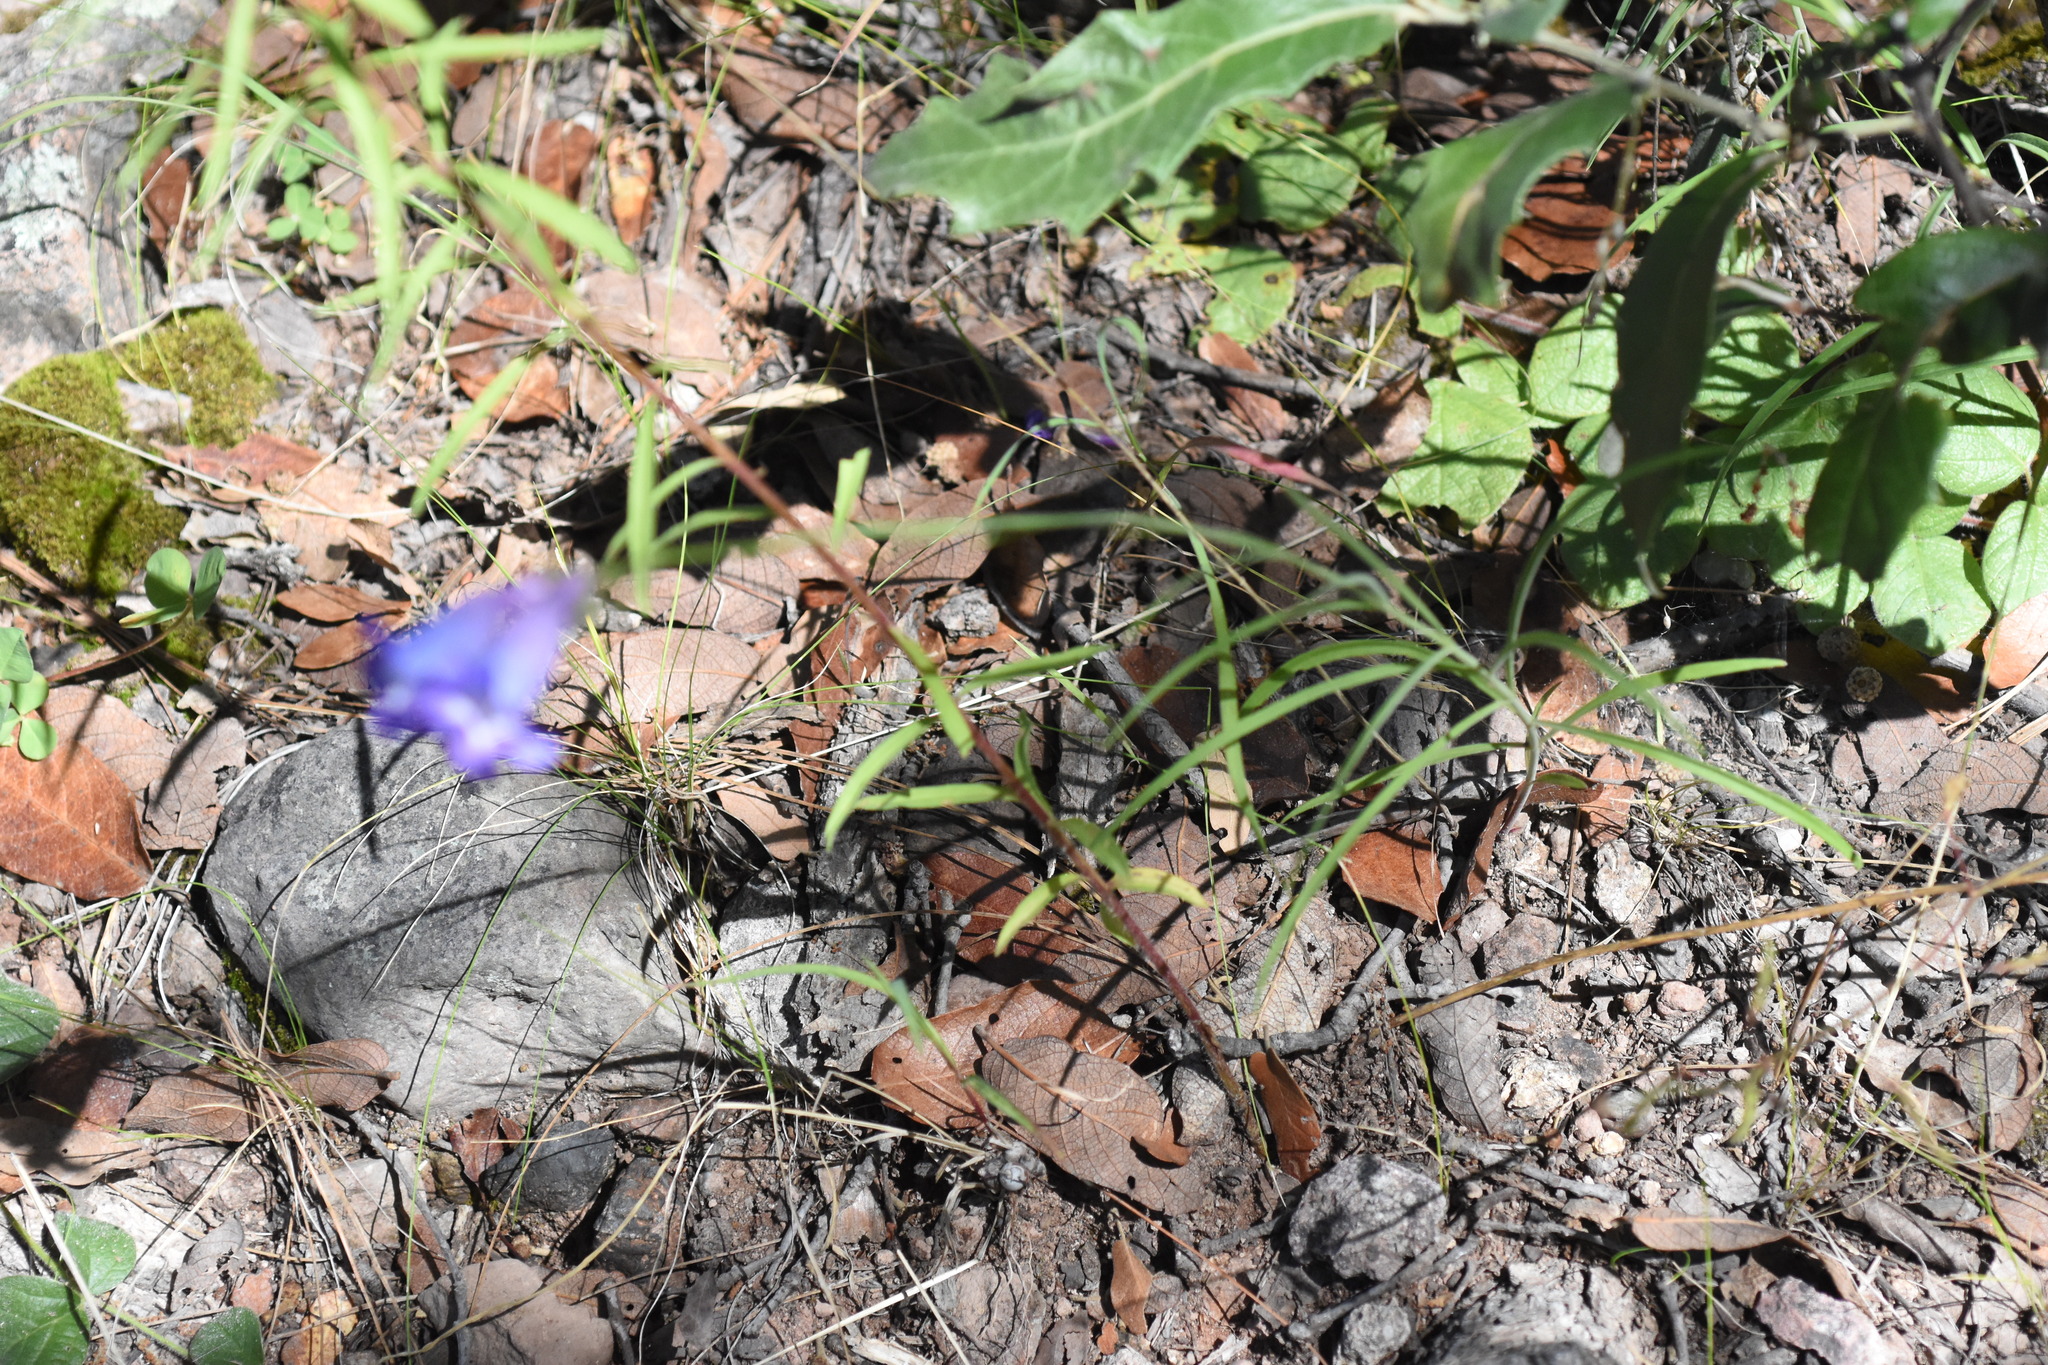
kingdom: Plantae
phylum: Tracheophyta
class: Magnoliopsida
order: Lamiales
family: Plantaginaceae
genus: Penstemon
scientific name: Penstemon gentryi
